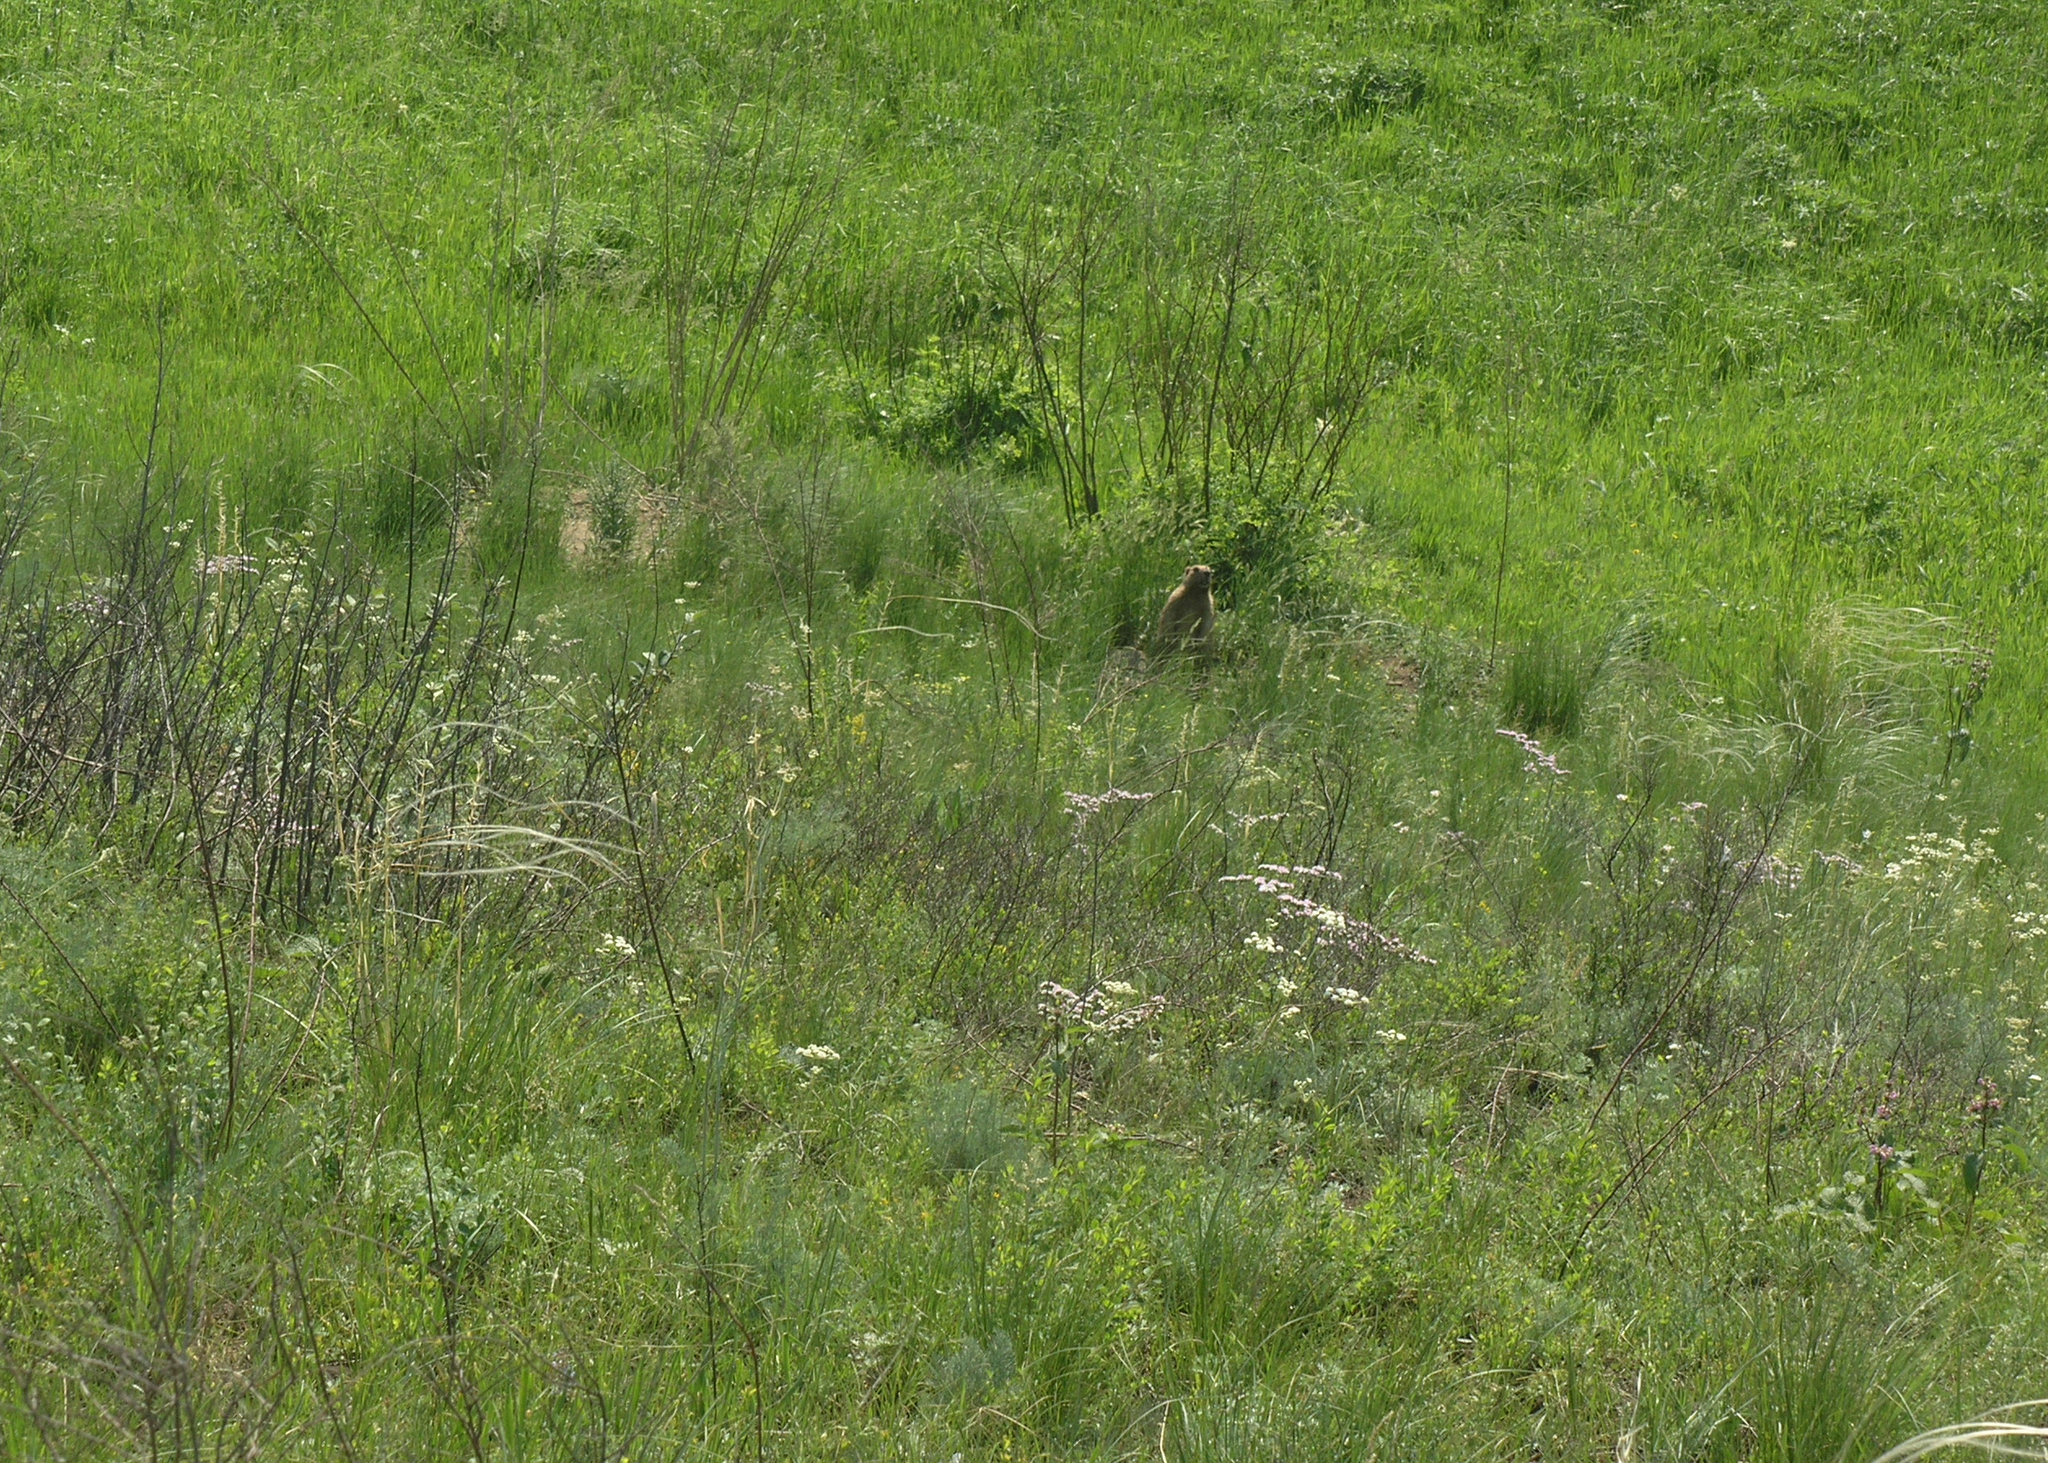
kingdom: Animalia
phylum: Chordata
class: Mammalia
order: Rodentia
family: Sciuridae
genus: Marmota
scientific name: Marmota kastschenkoi
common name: Forest steppe marmot
